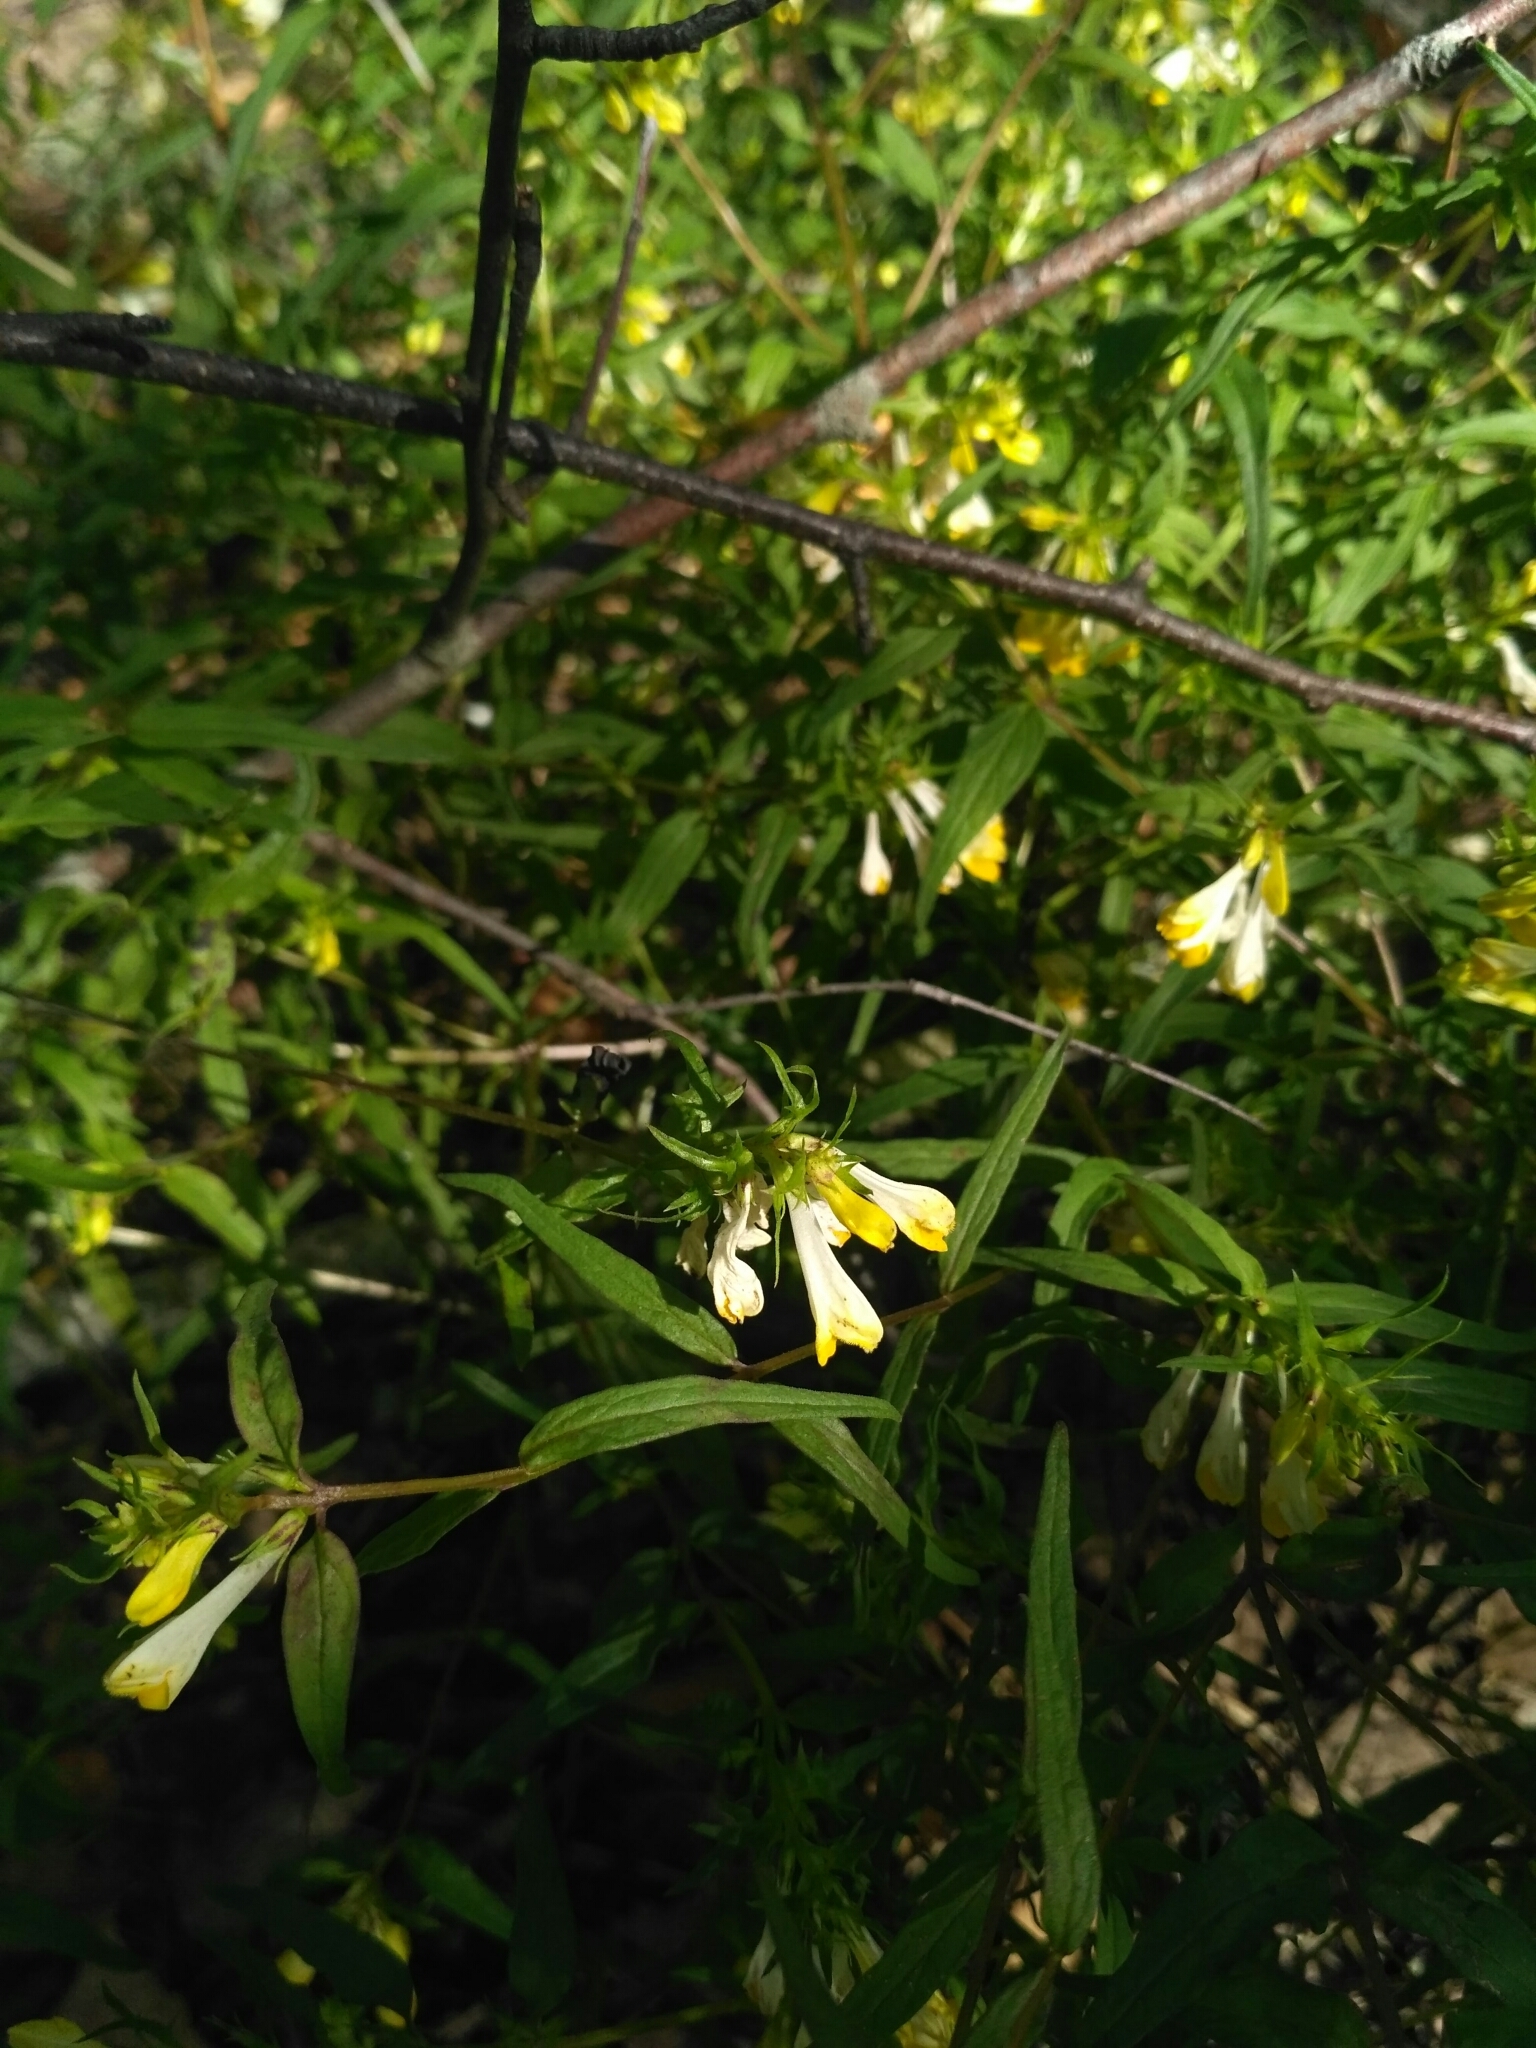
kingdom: Plantae
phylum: Tracheophyta
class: Magnoliopsida
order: Lamiales
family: Orobanchaceae
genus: Melampyrum
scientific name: Melampyrum pratense
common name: Common cow-wheat
